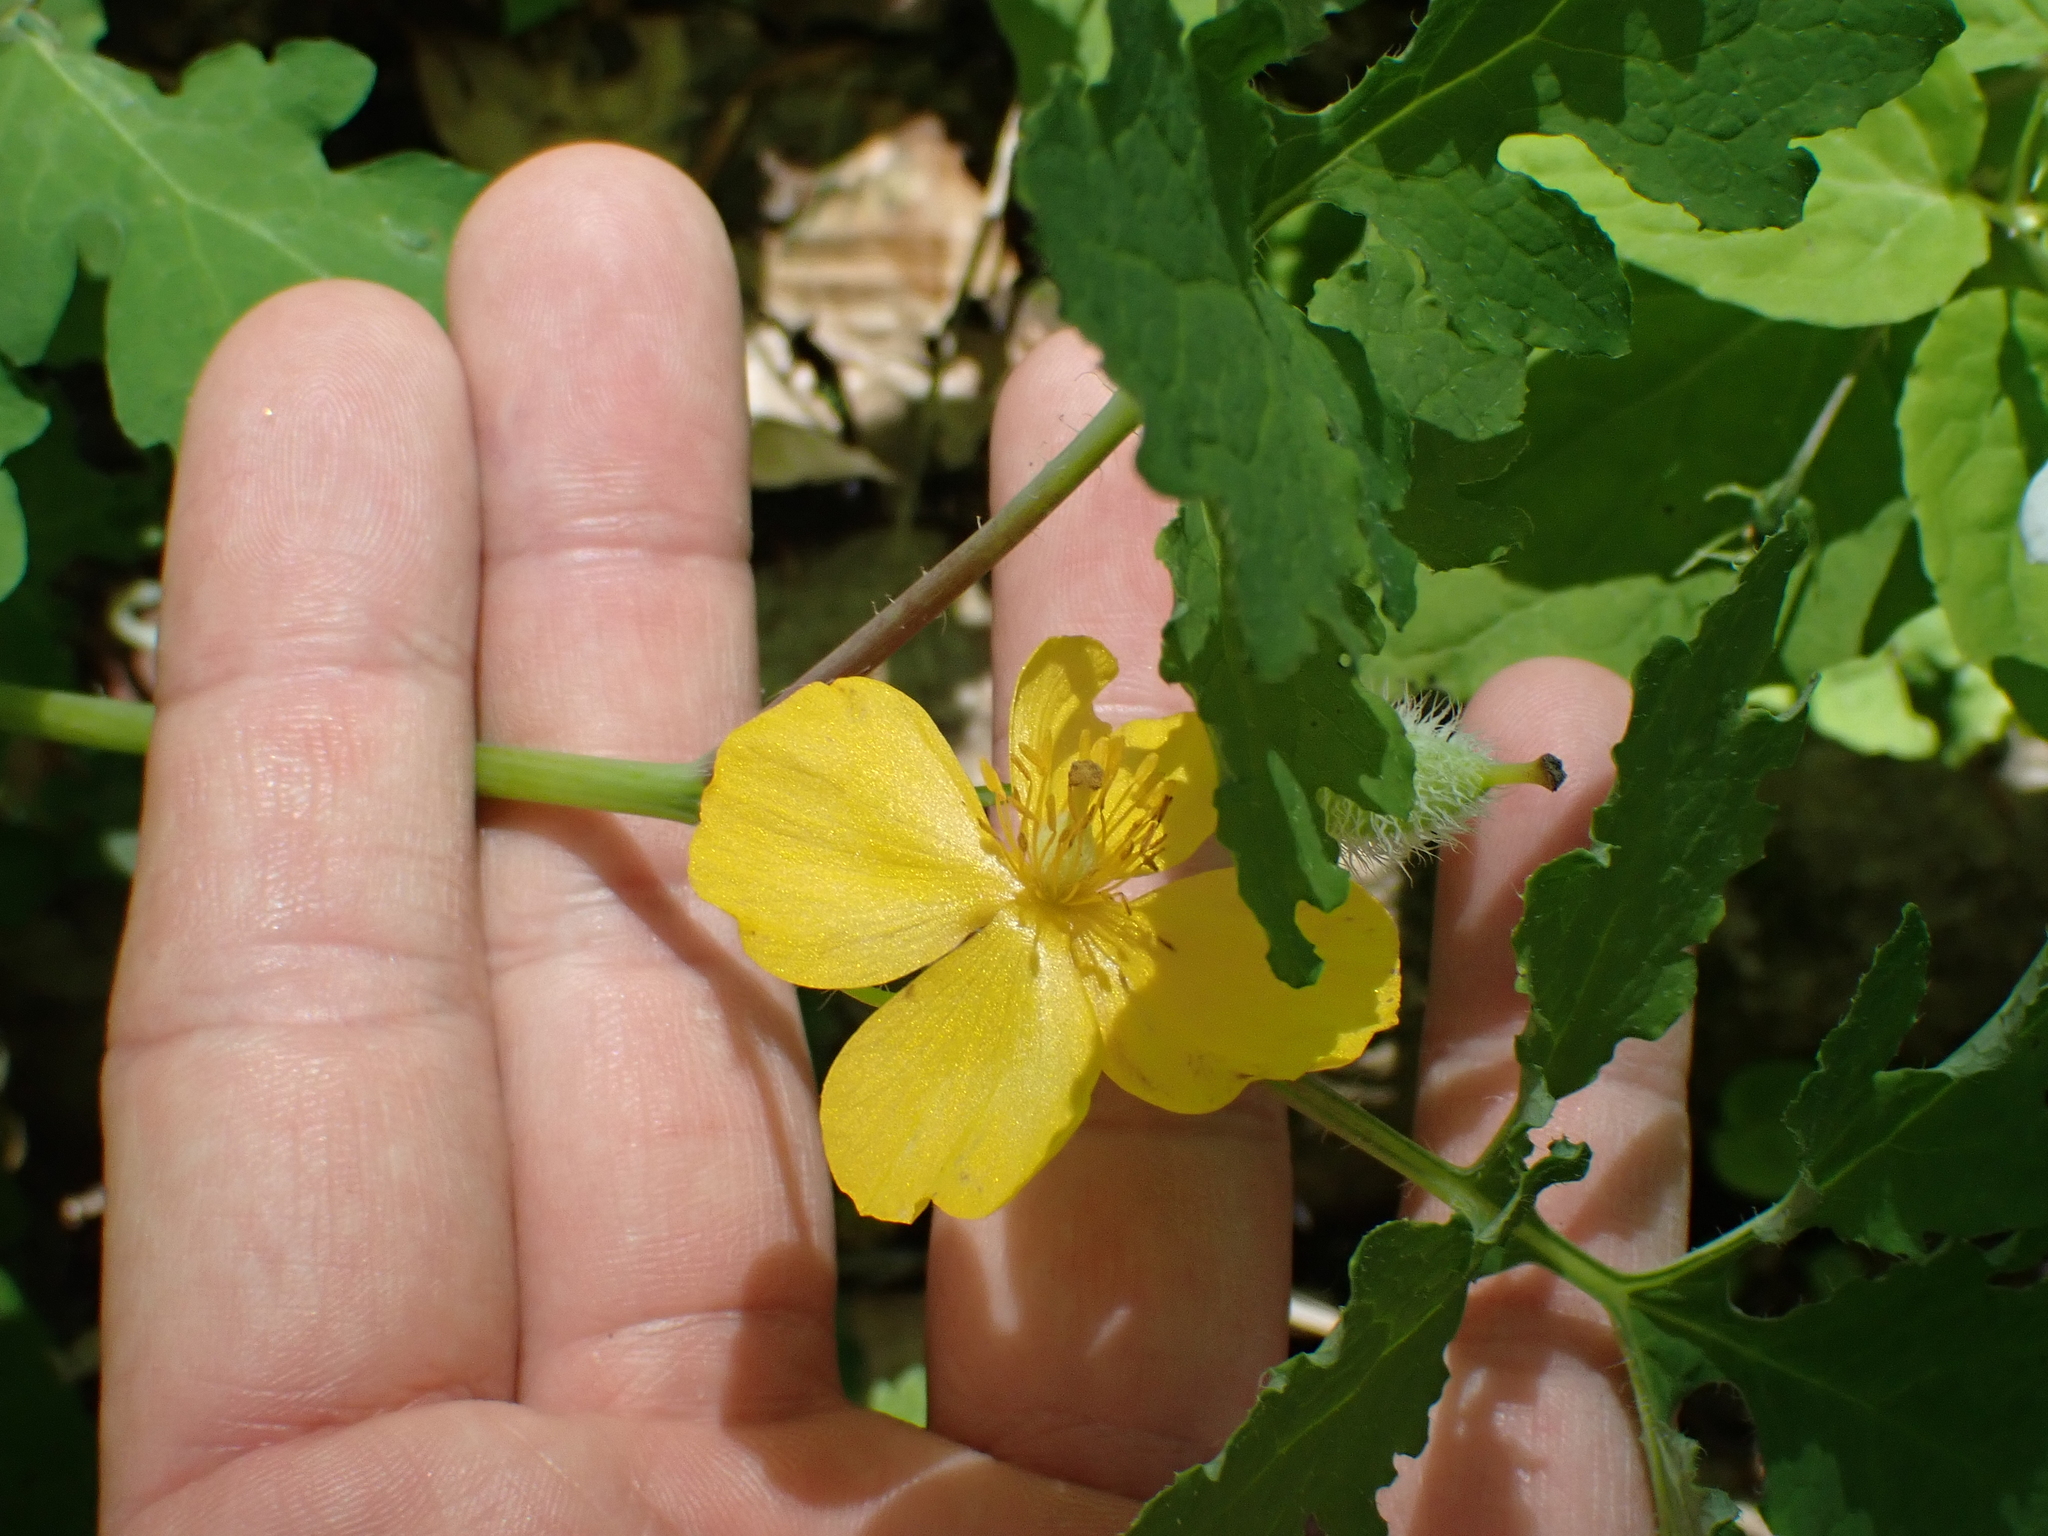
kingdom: Plantae
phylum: Tracheophyta
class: Magnoliopsida
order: Ranunculales
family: Papaveraceae
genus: Stylophorum
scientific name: Stylophorum diphyllum
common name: Celandine poppy
